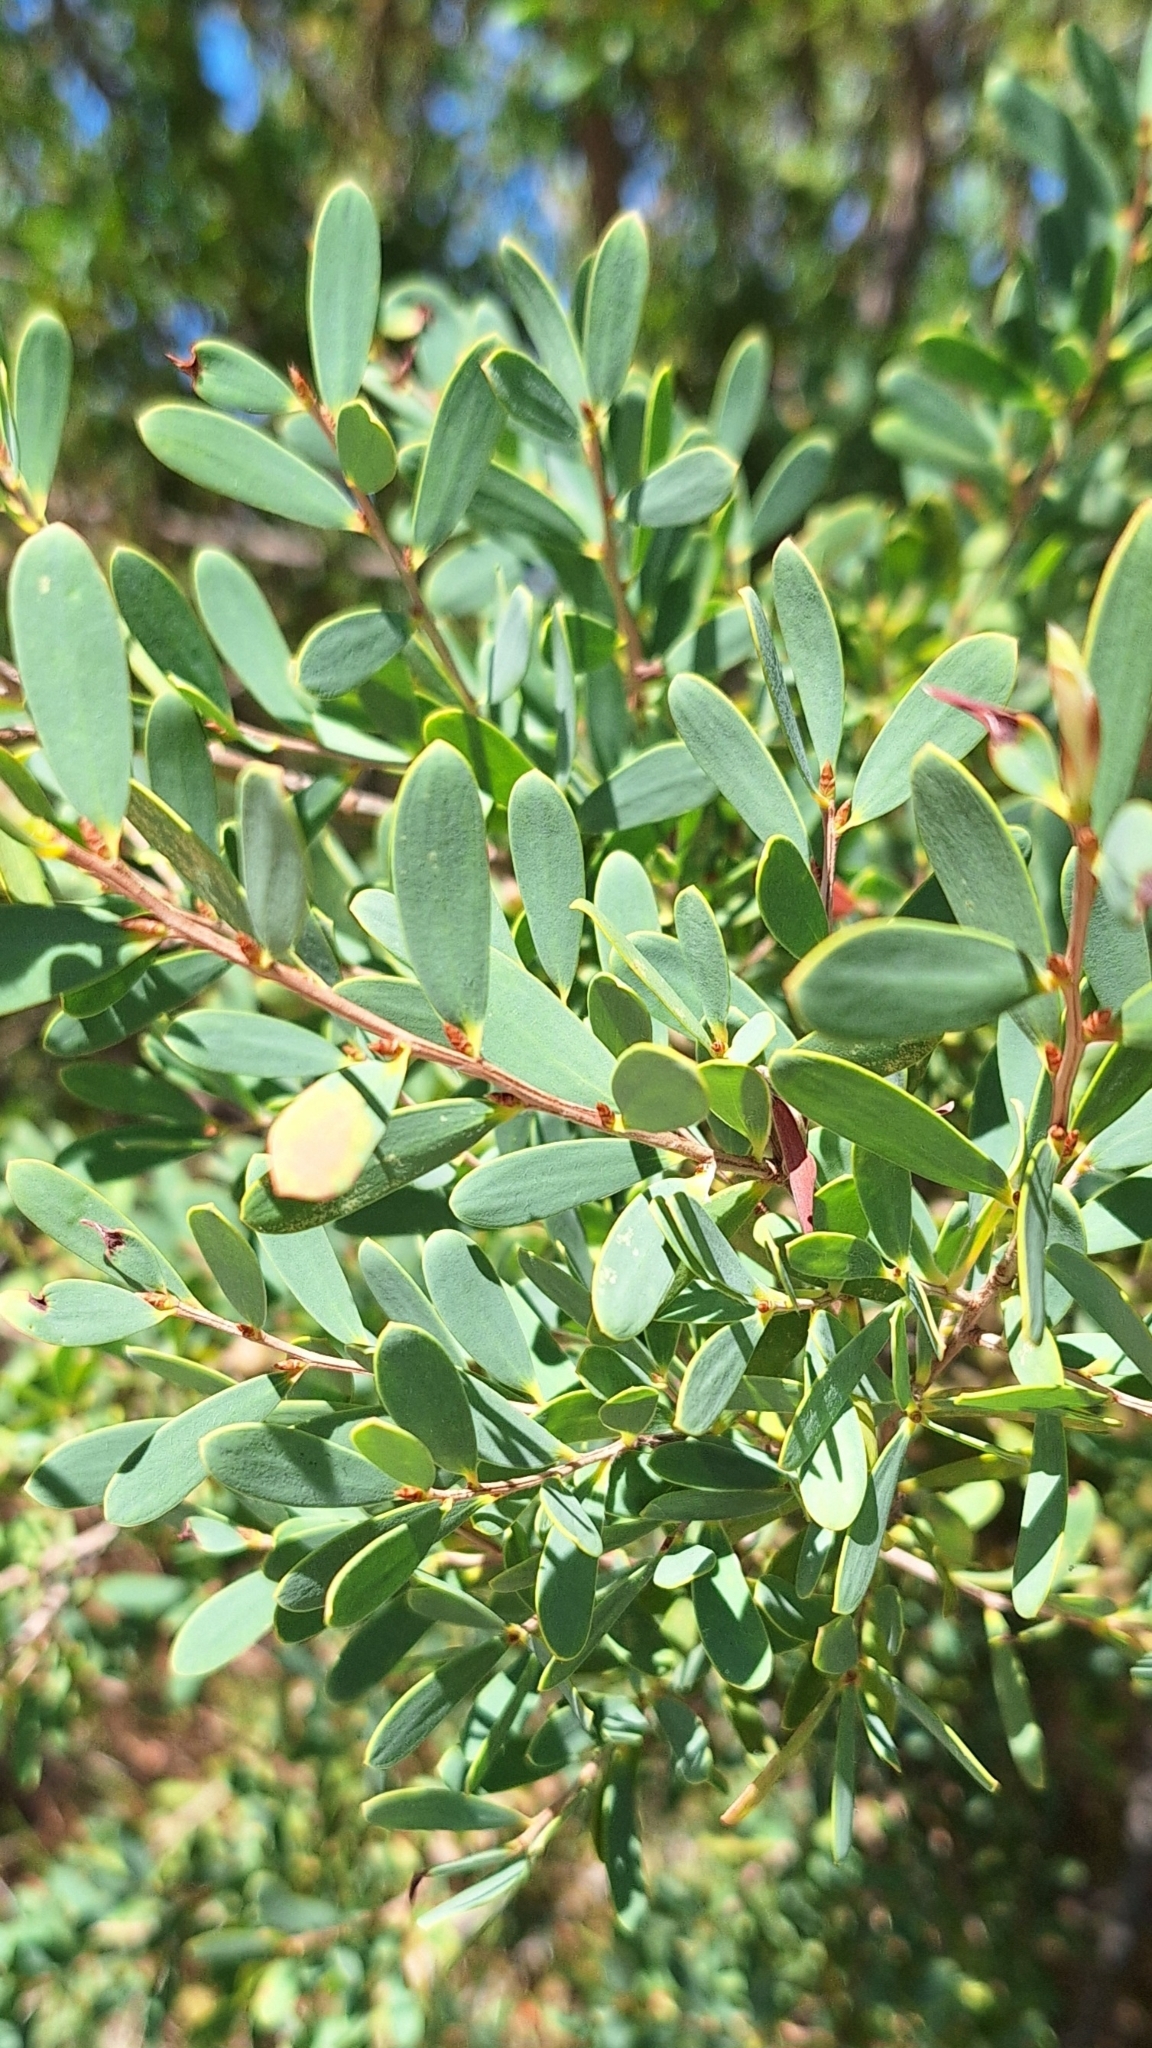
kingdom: Plantae
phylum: Tracheophyta
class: Magnoliopsida
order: Myrtales
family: Myrtaceae
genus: Leptospermum
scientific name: Leptospermum laevigatum
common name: Australian teatree
